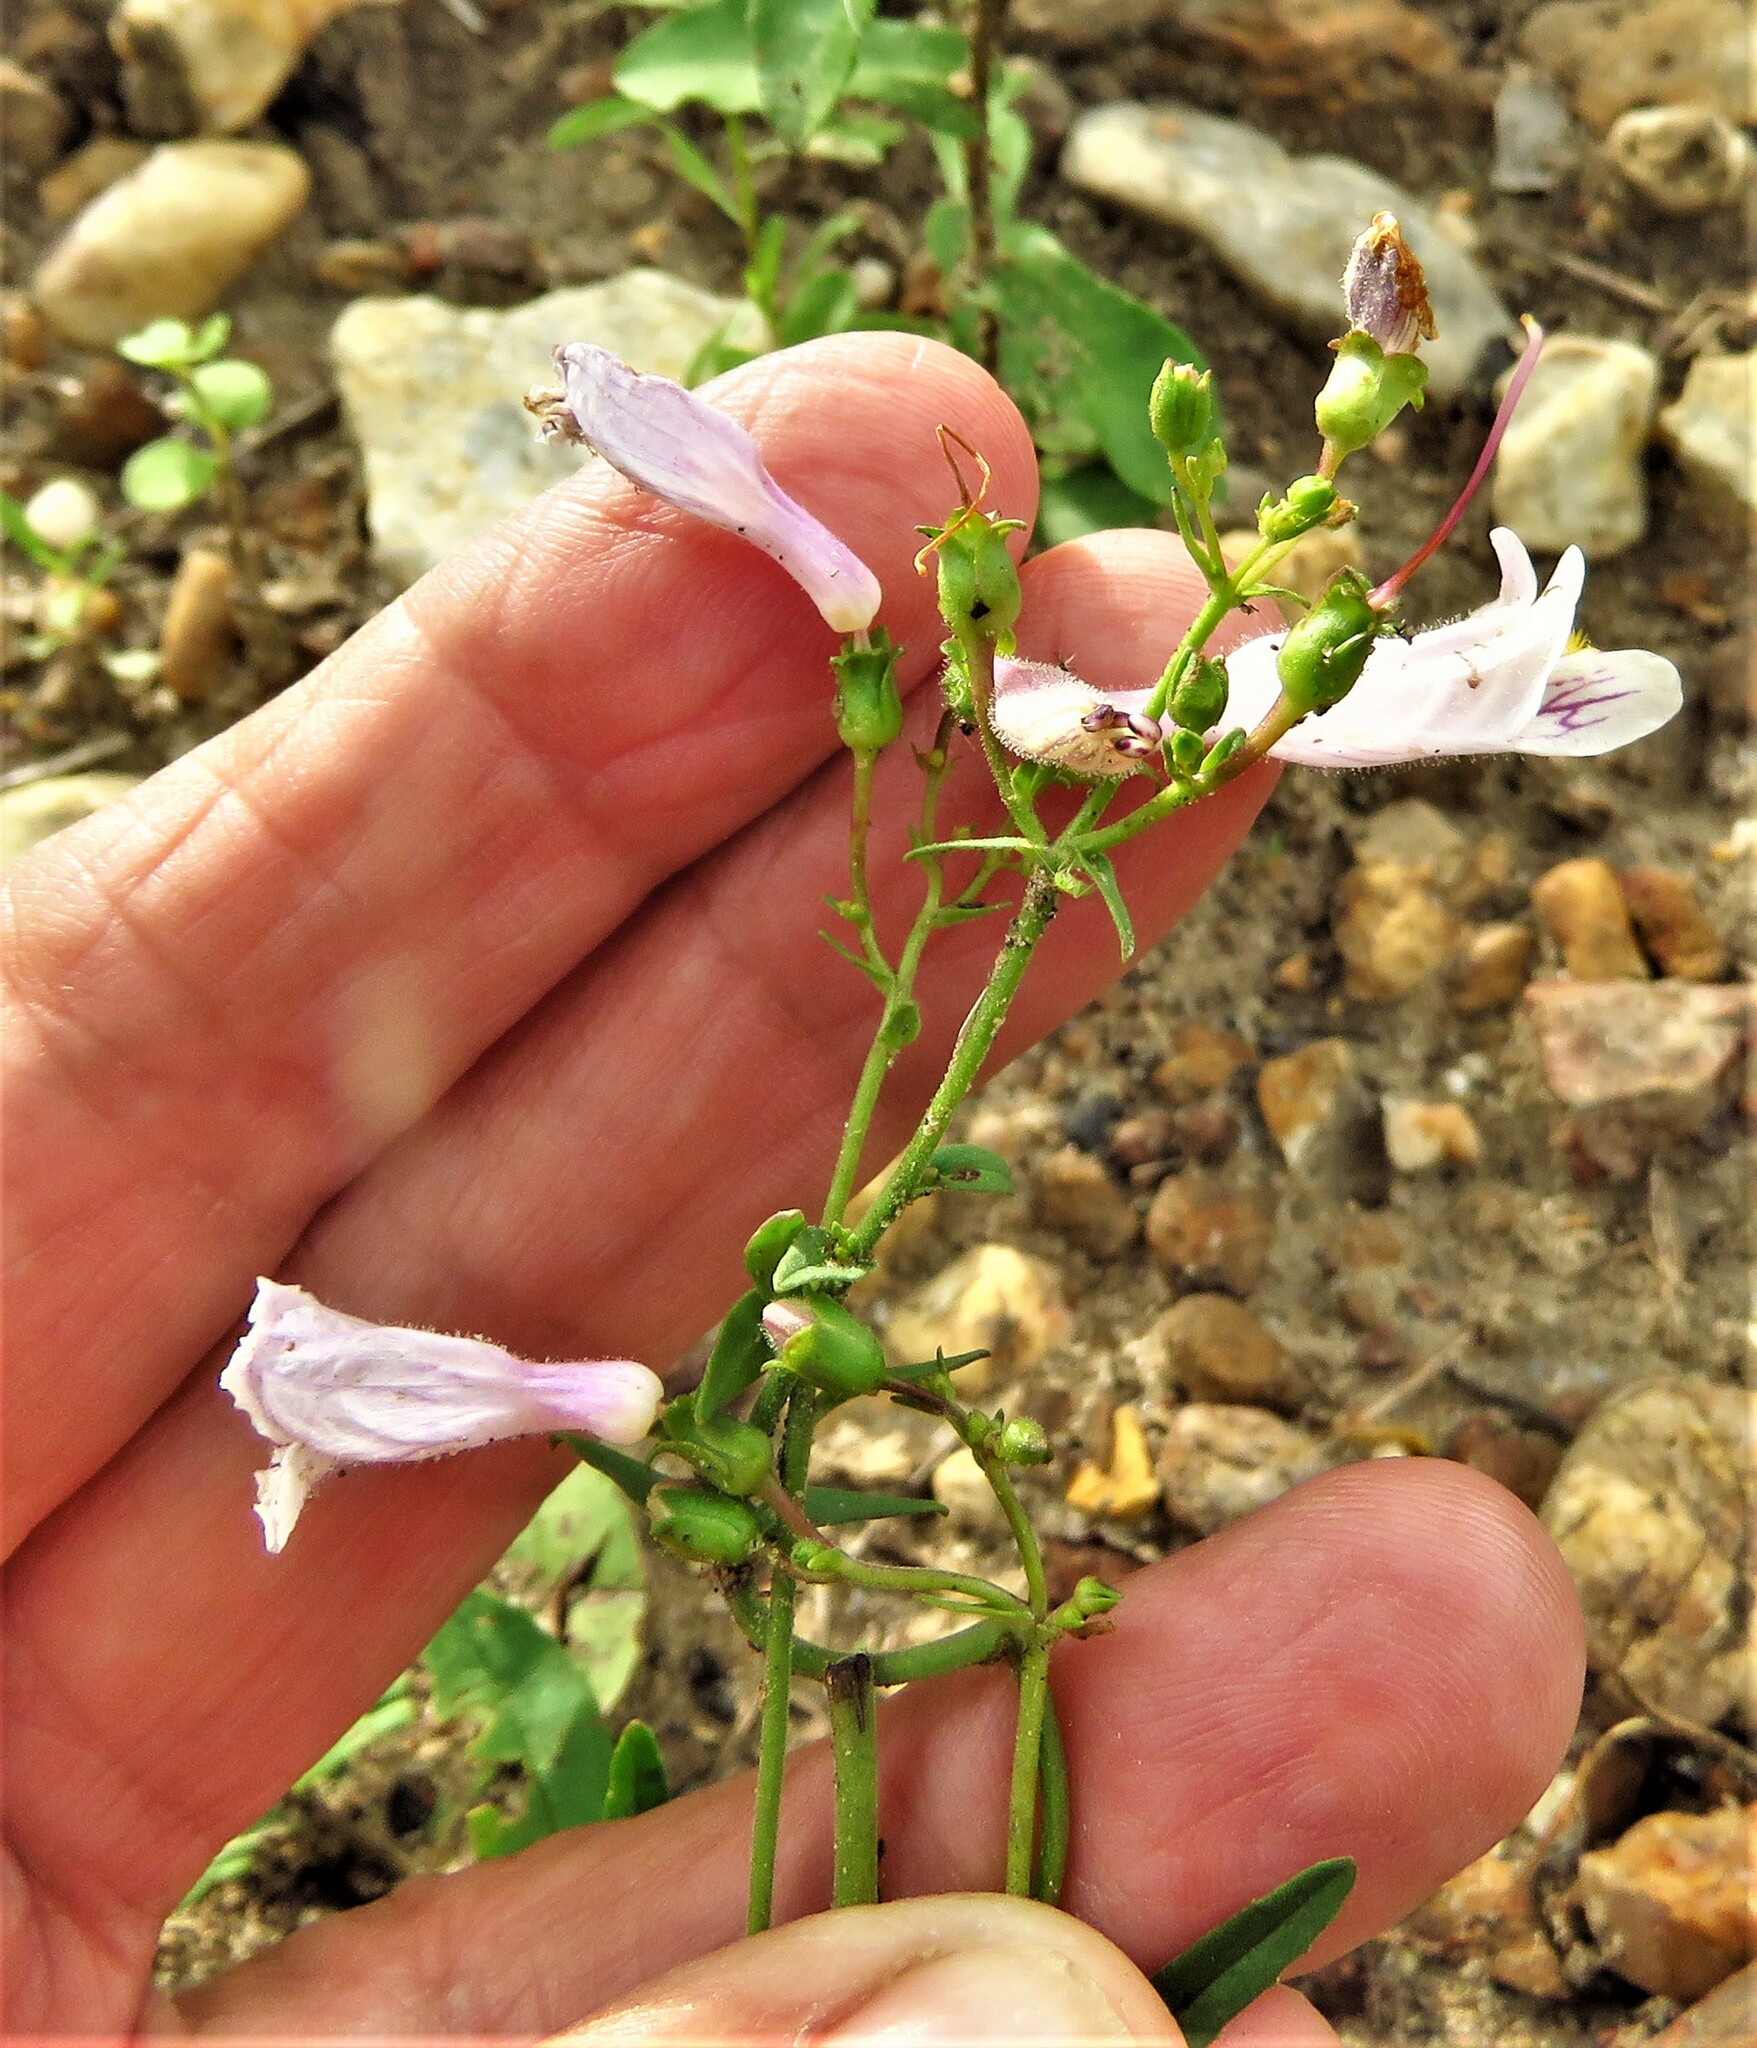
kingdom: Plantae
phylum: Tracheophyta
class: Magnoliopsida
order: Lamiales
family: Plantaginaceae
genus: Penstemon
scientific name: Penstemon laxiflorus
